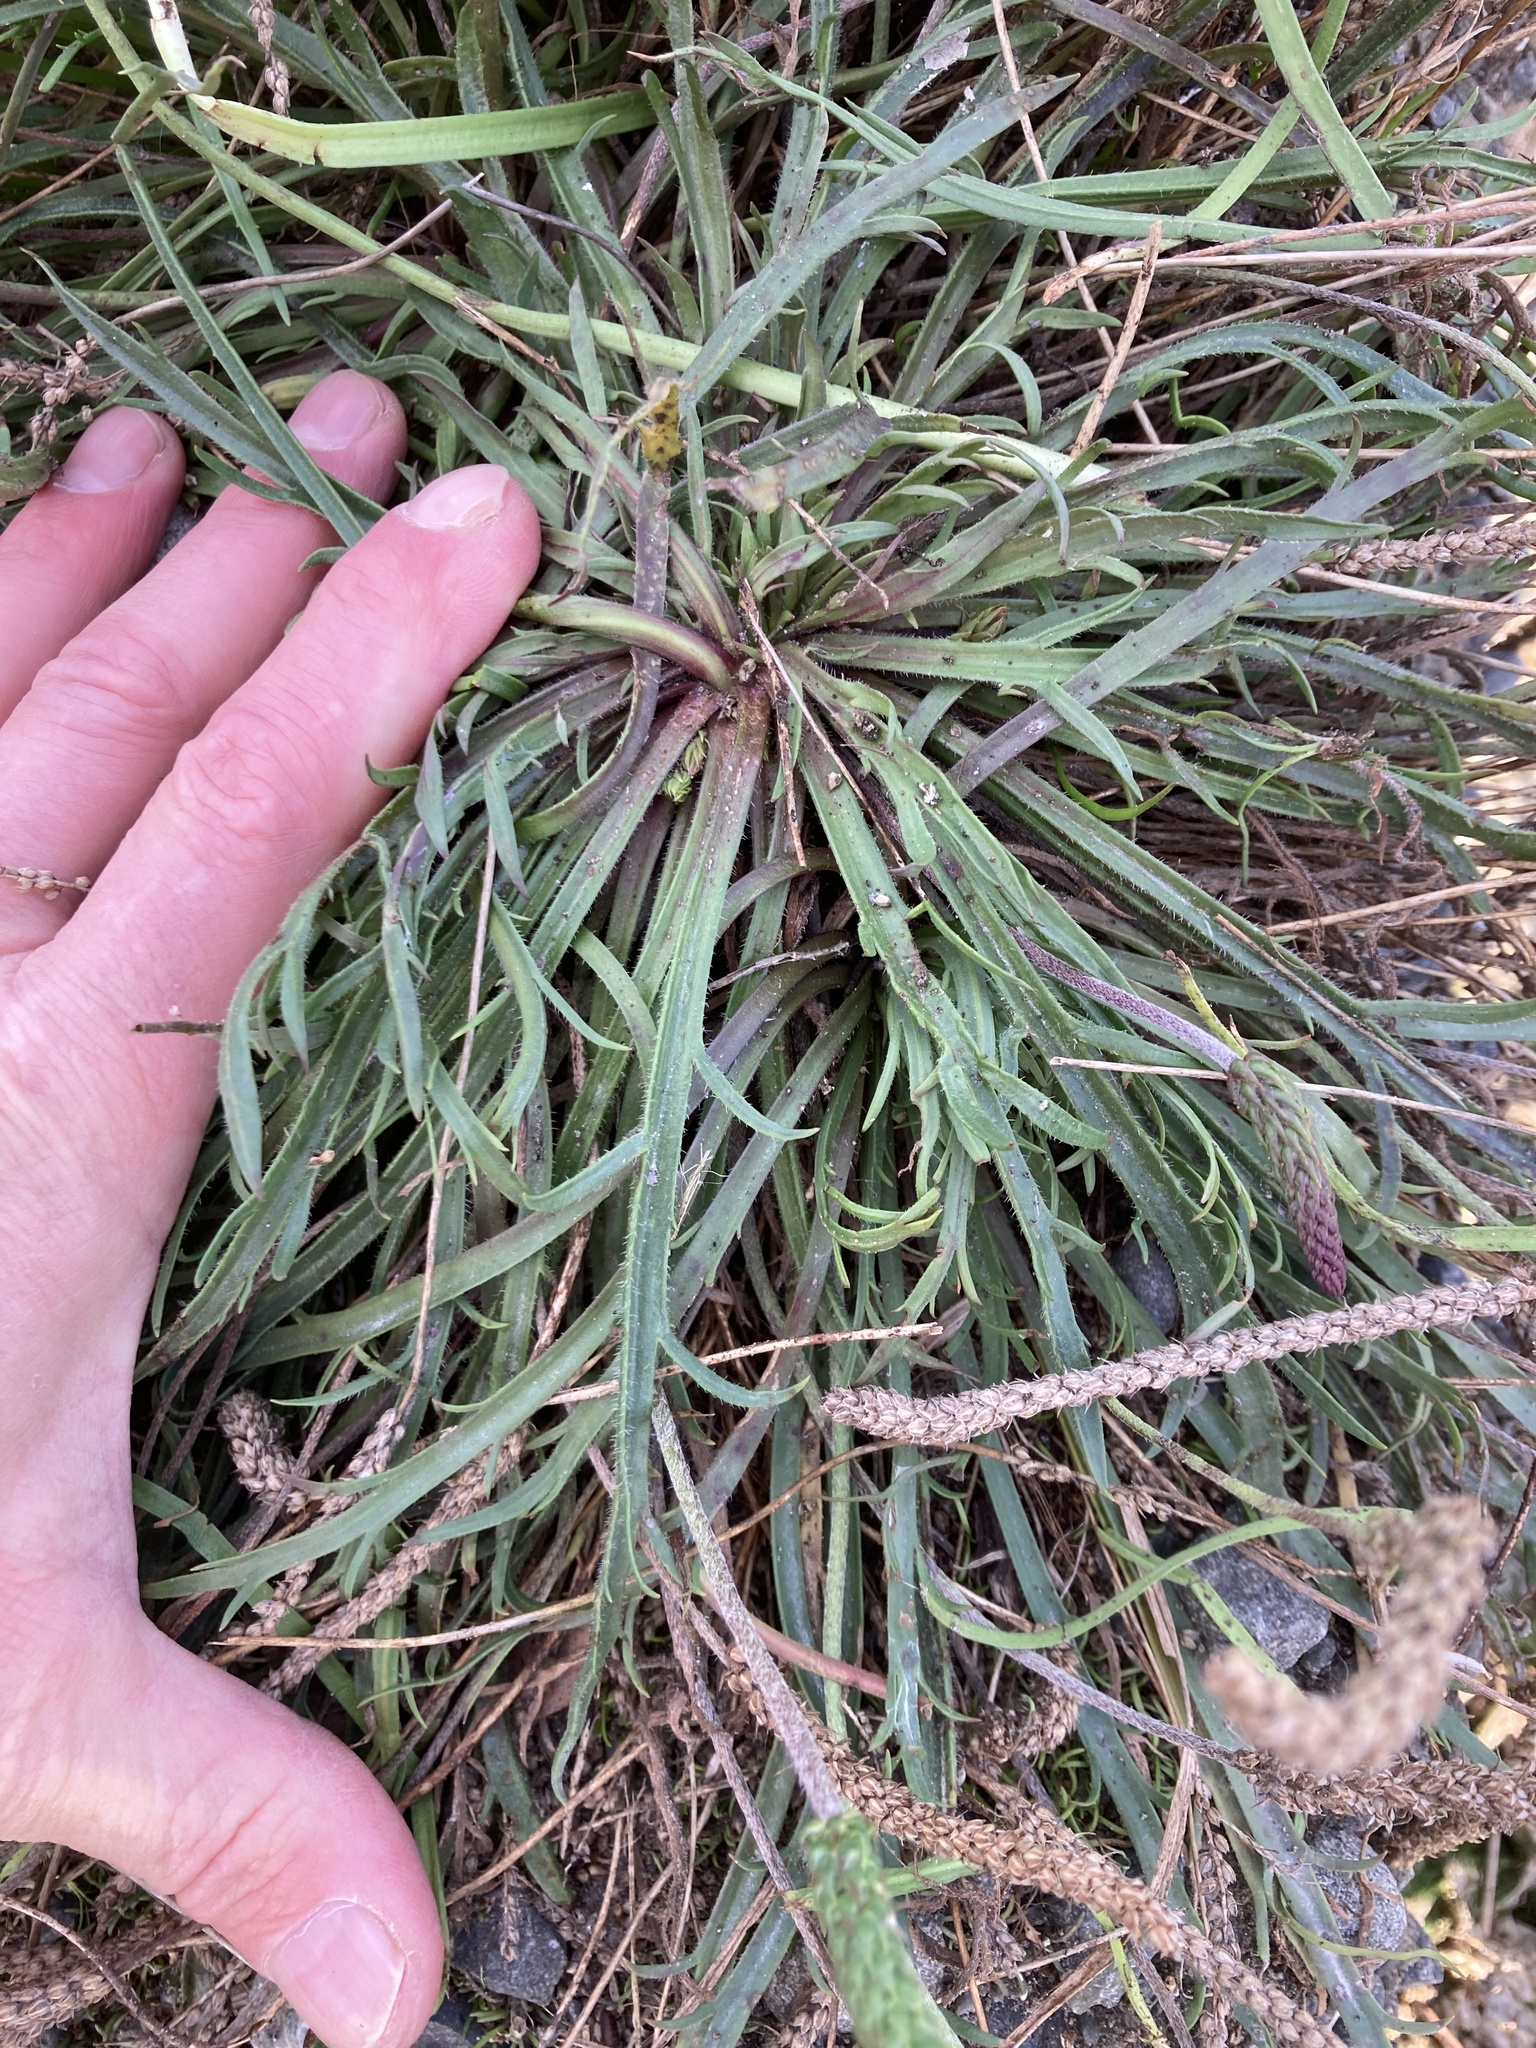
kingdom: Plantae
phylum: Tracheophyta
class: Magnoliopsida
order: Lamiales
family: Plantaginaceae
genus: Plantago
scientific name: Plantago coronopus
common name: Buck's-horn plantain
